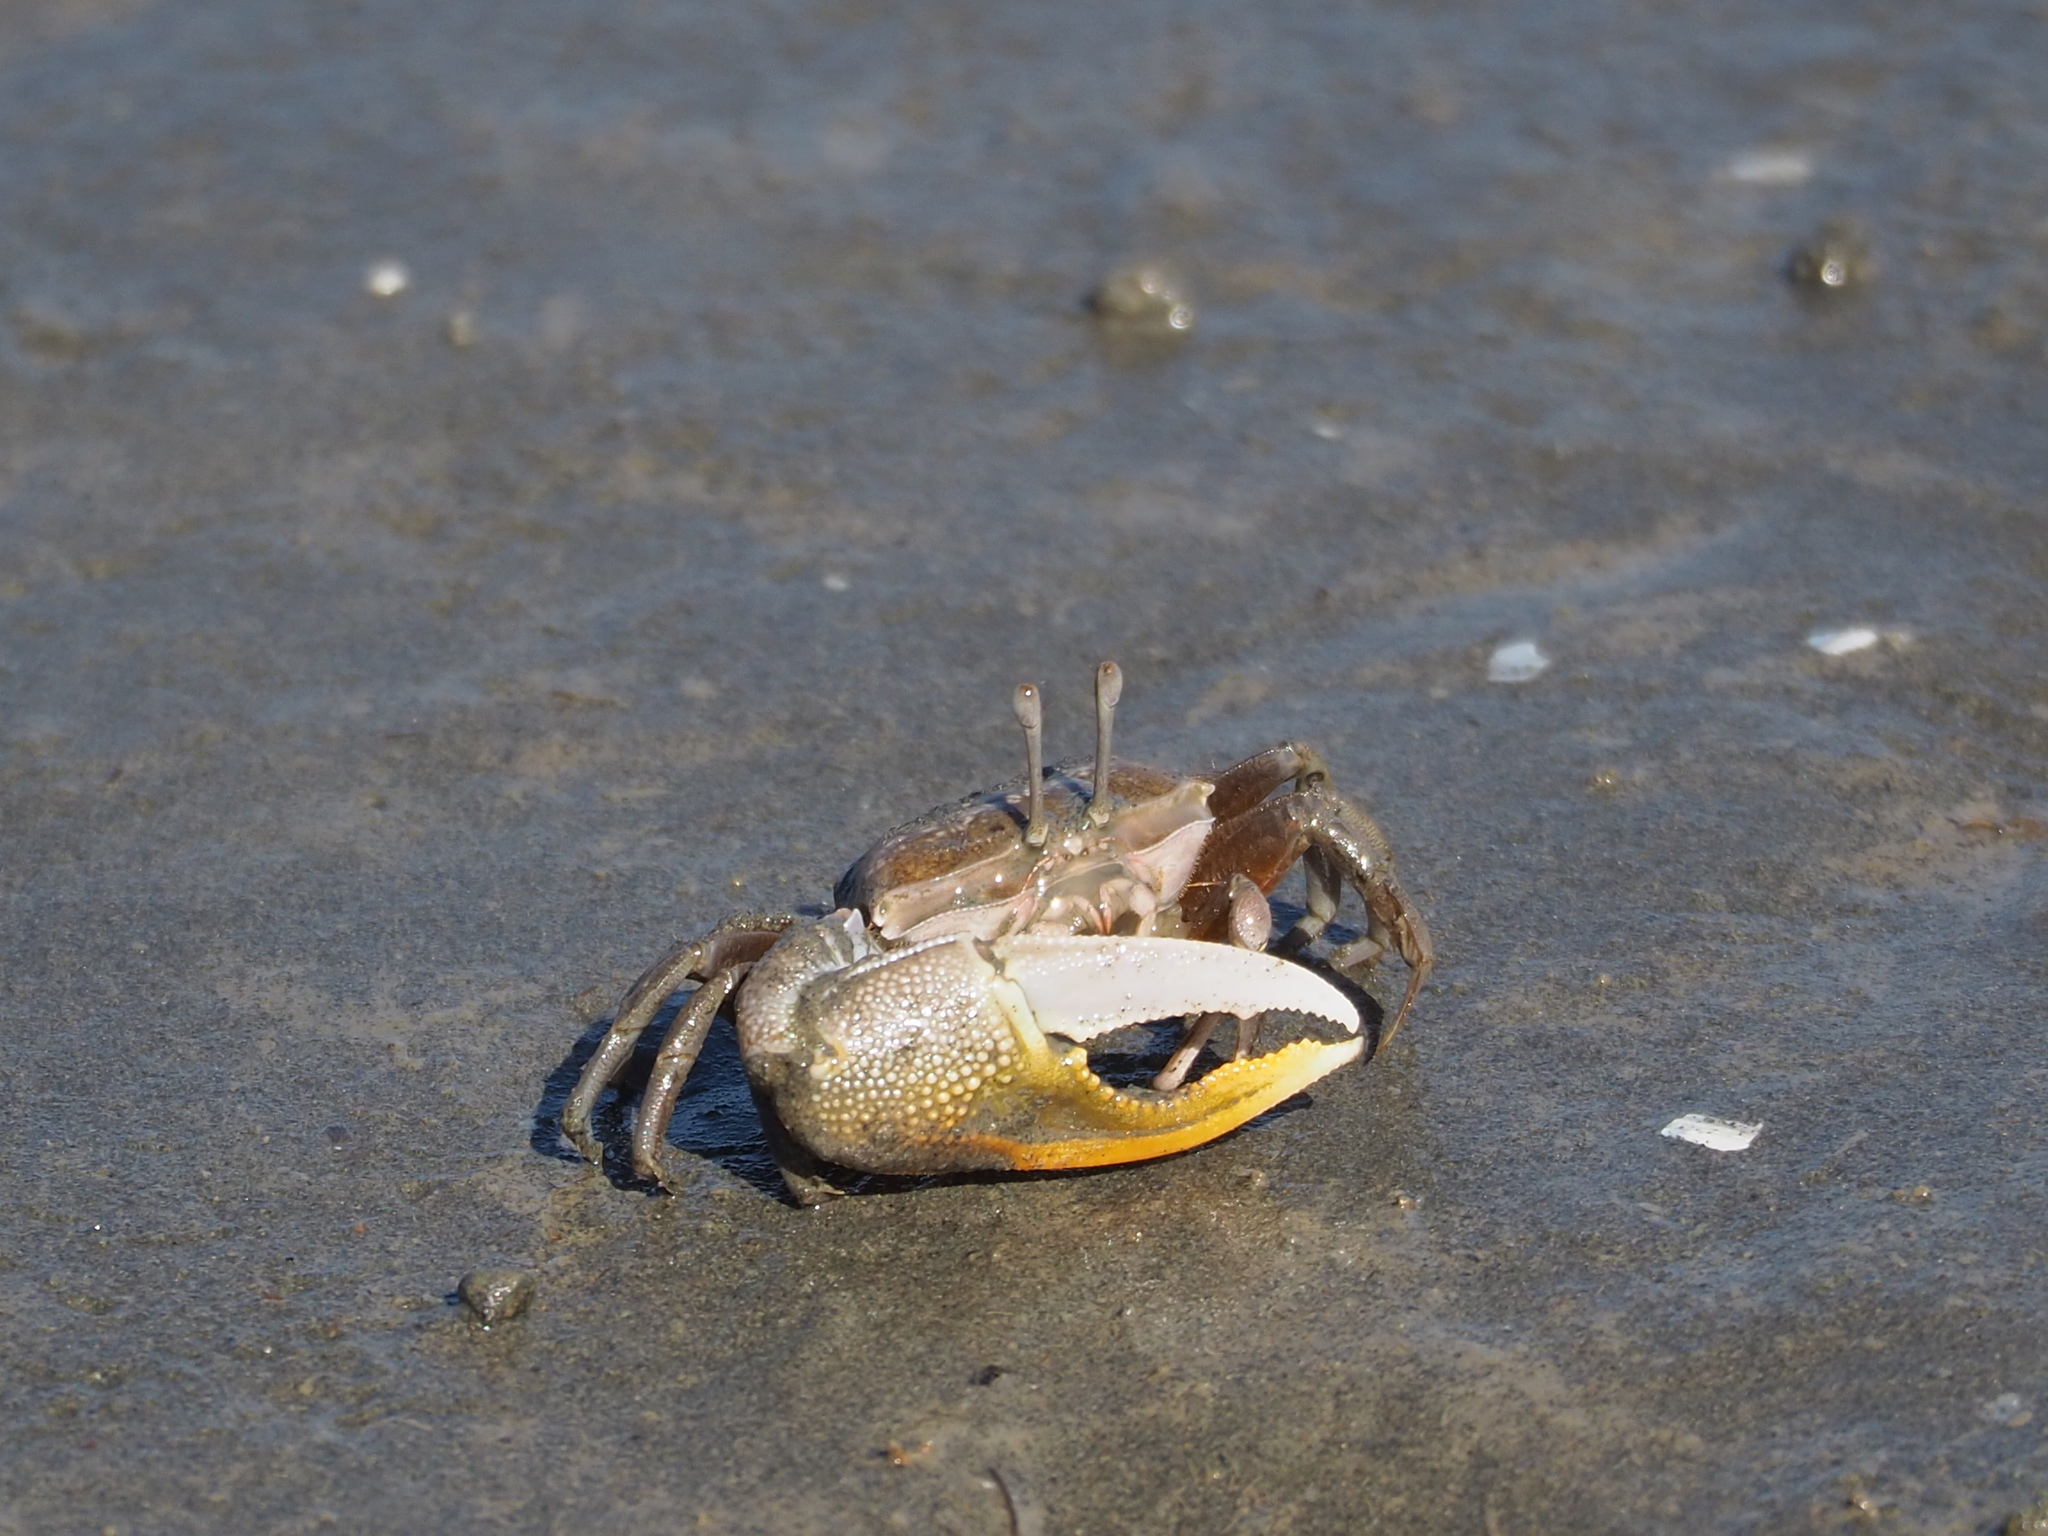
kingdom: Animalia
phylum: Arthropoda
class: Malacostraca
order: Decapoda
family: Ocypodidae
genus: Gelasimus
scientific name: Gelasimus borealis
